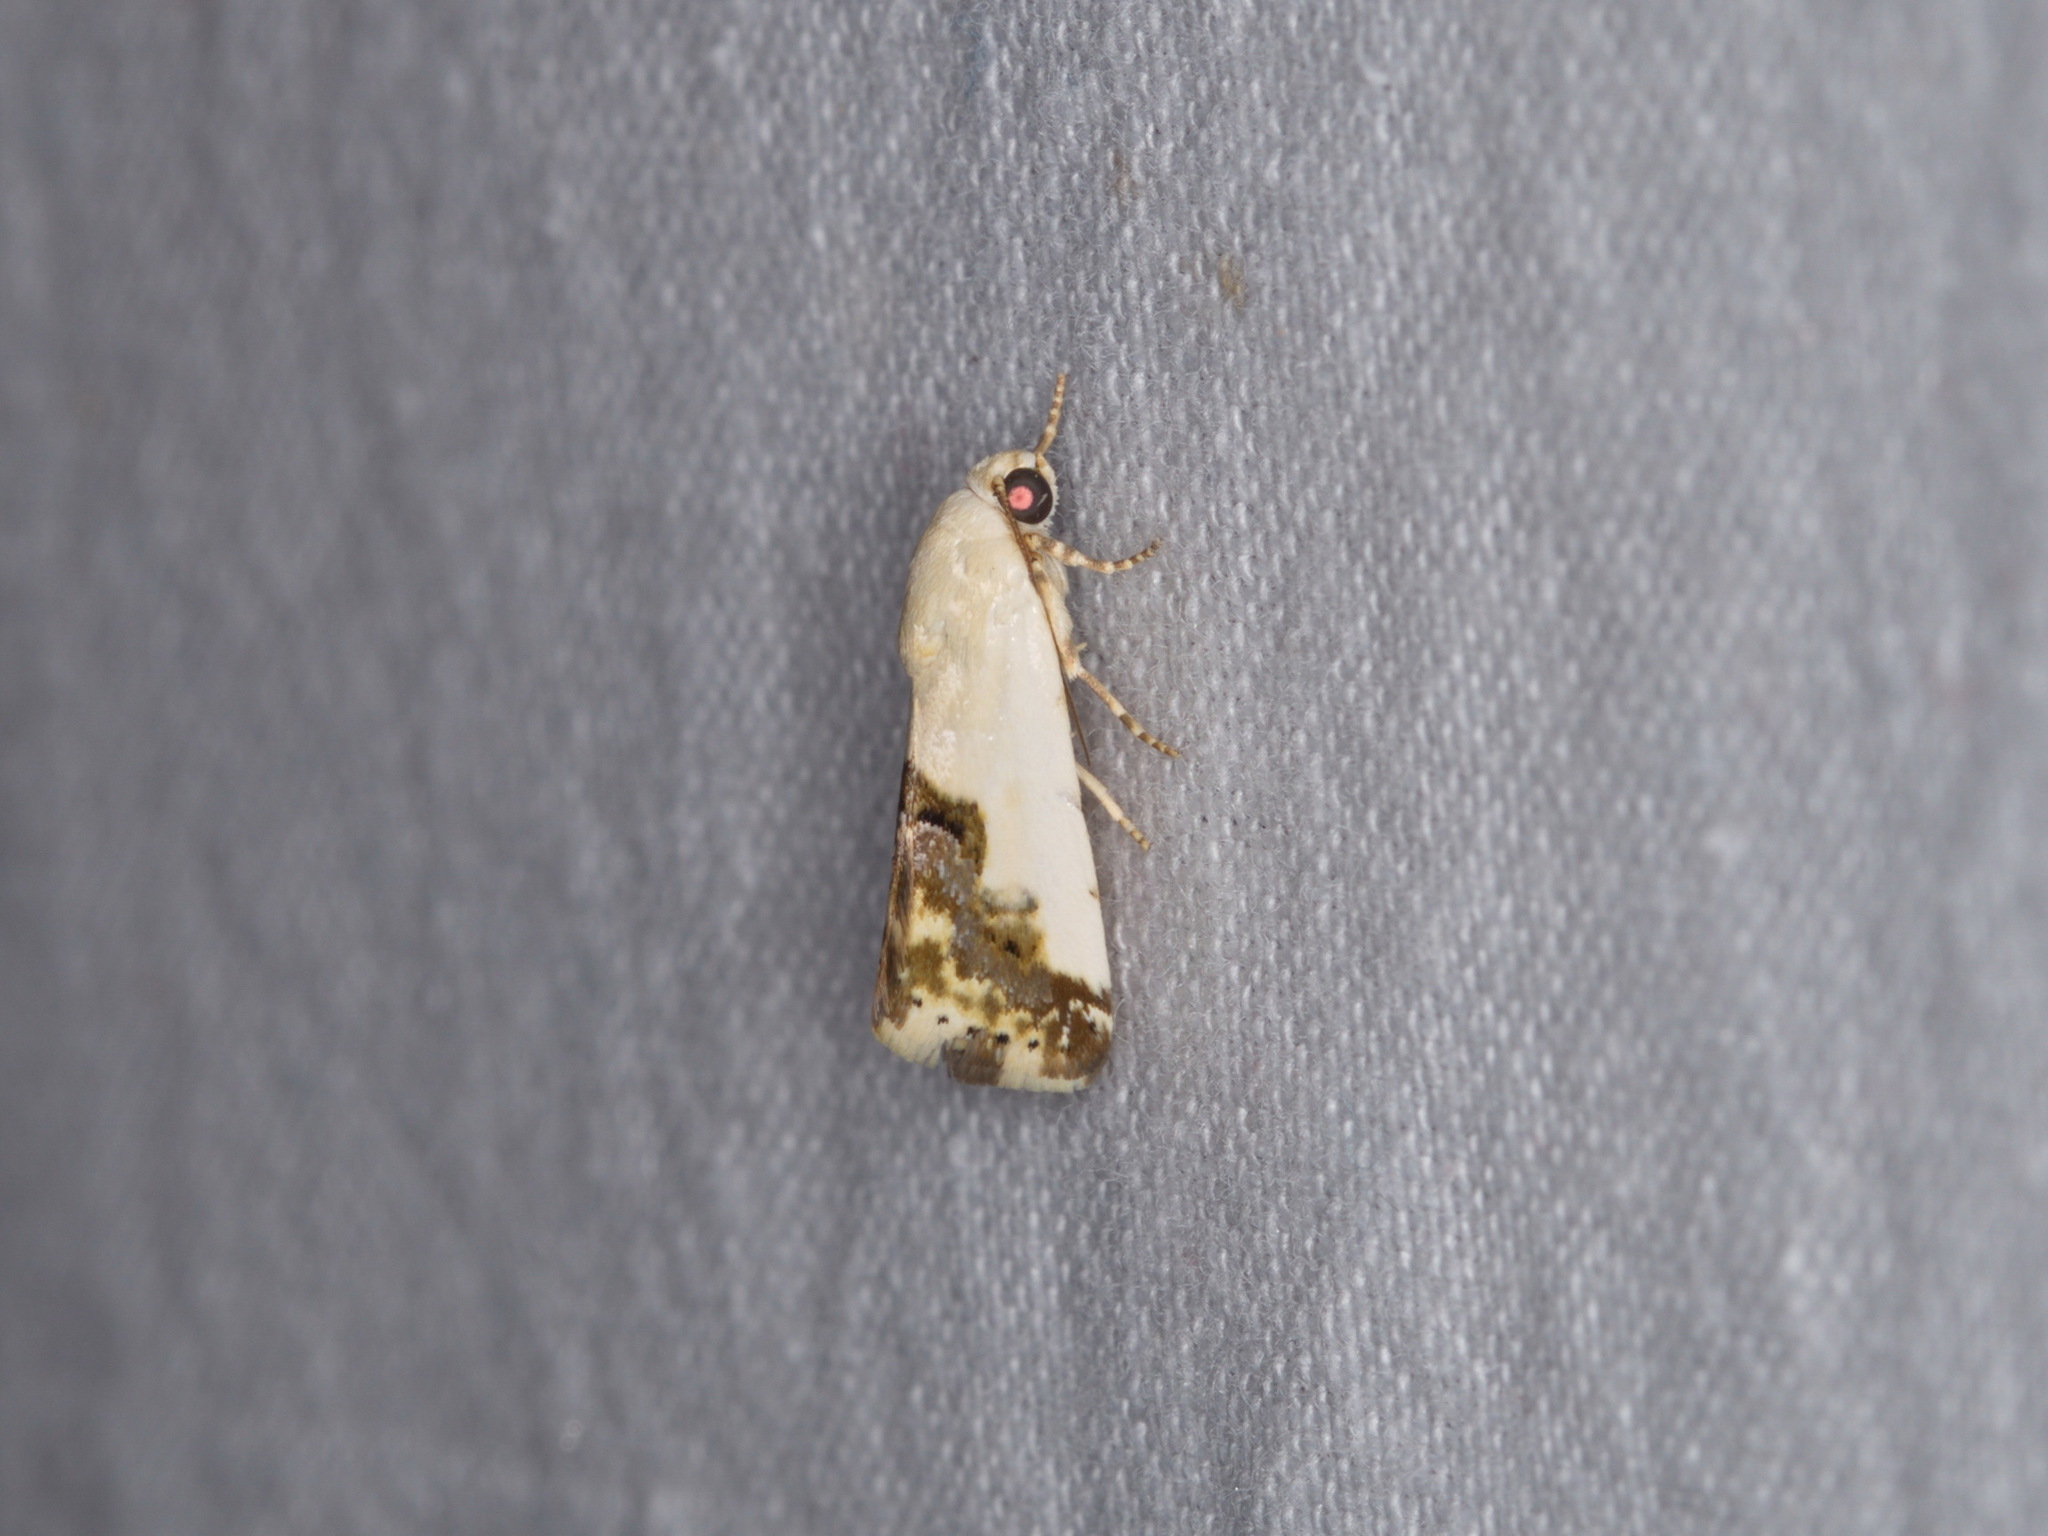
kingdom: Animalia
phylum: Arthropoda
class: Insecta
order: Lepidoptera
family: Noctuidae
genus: Acontia
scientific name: Acontia clerana
